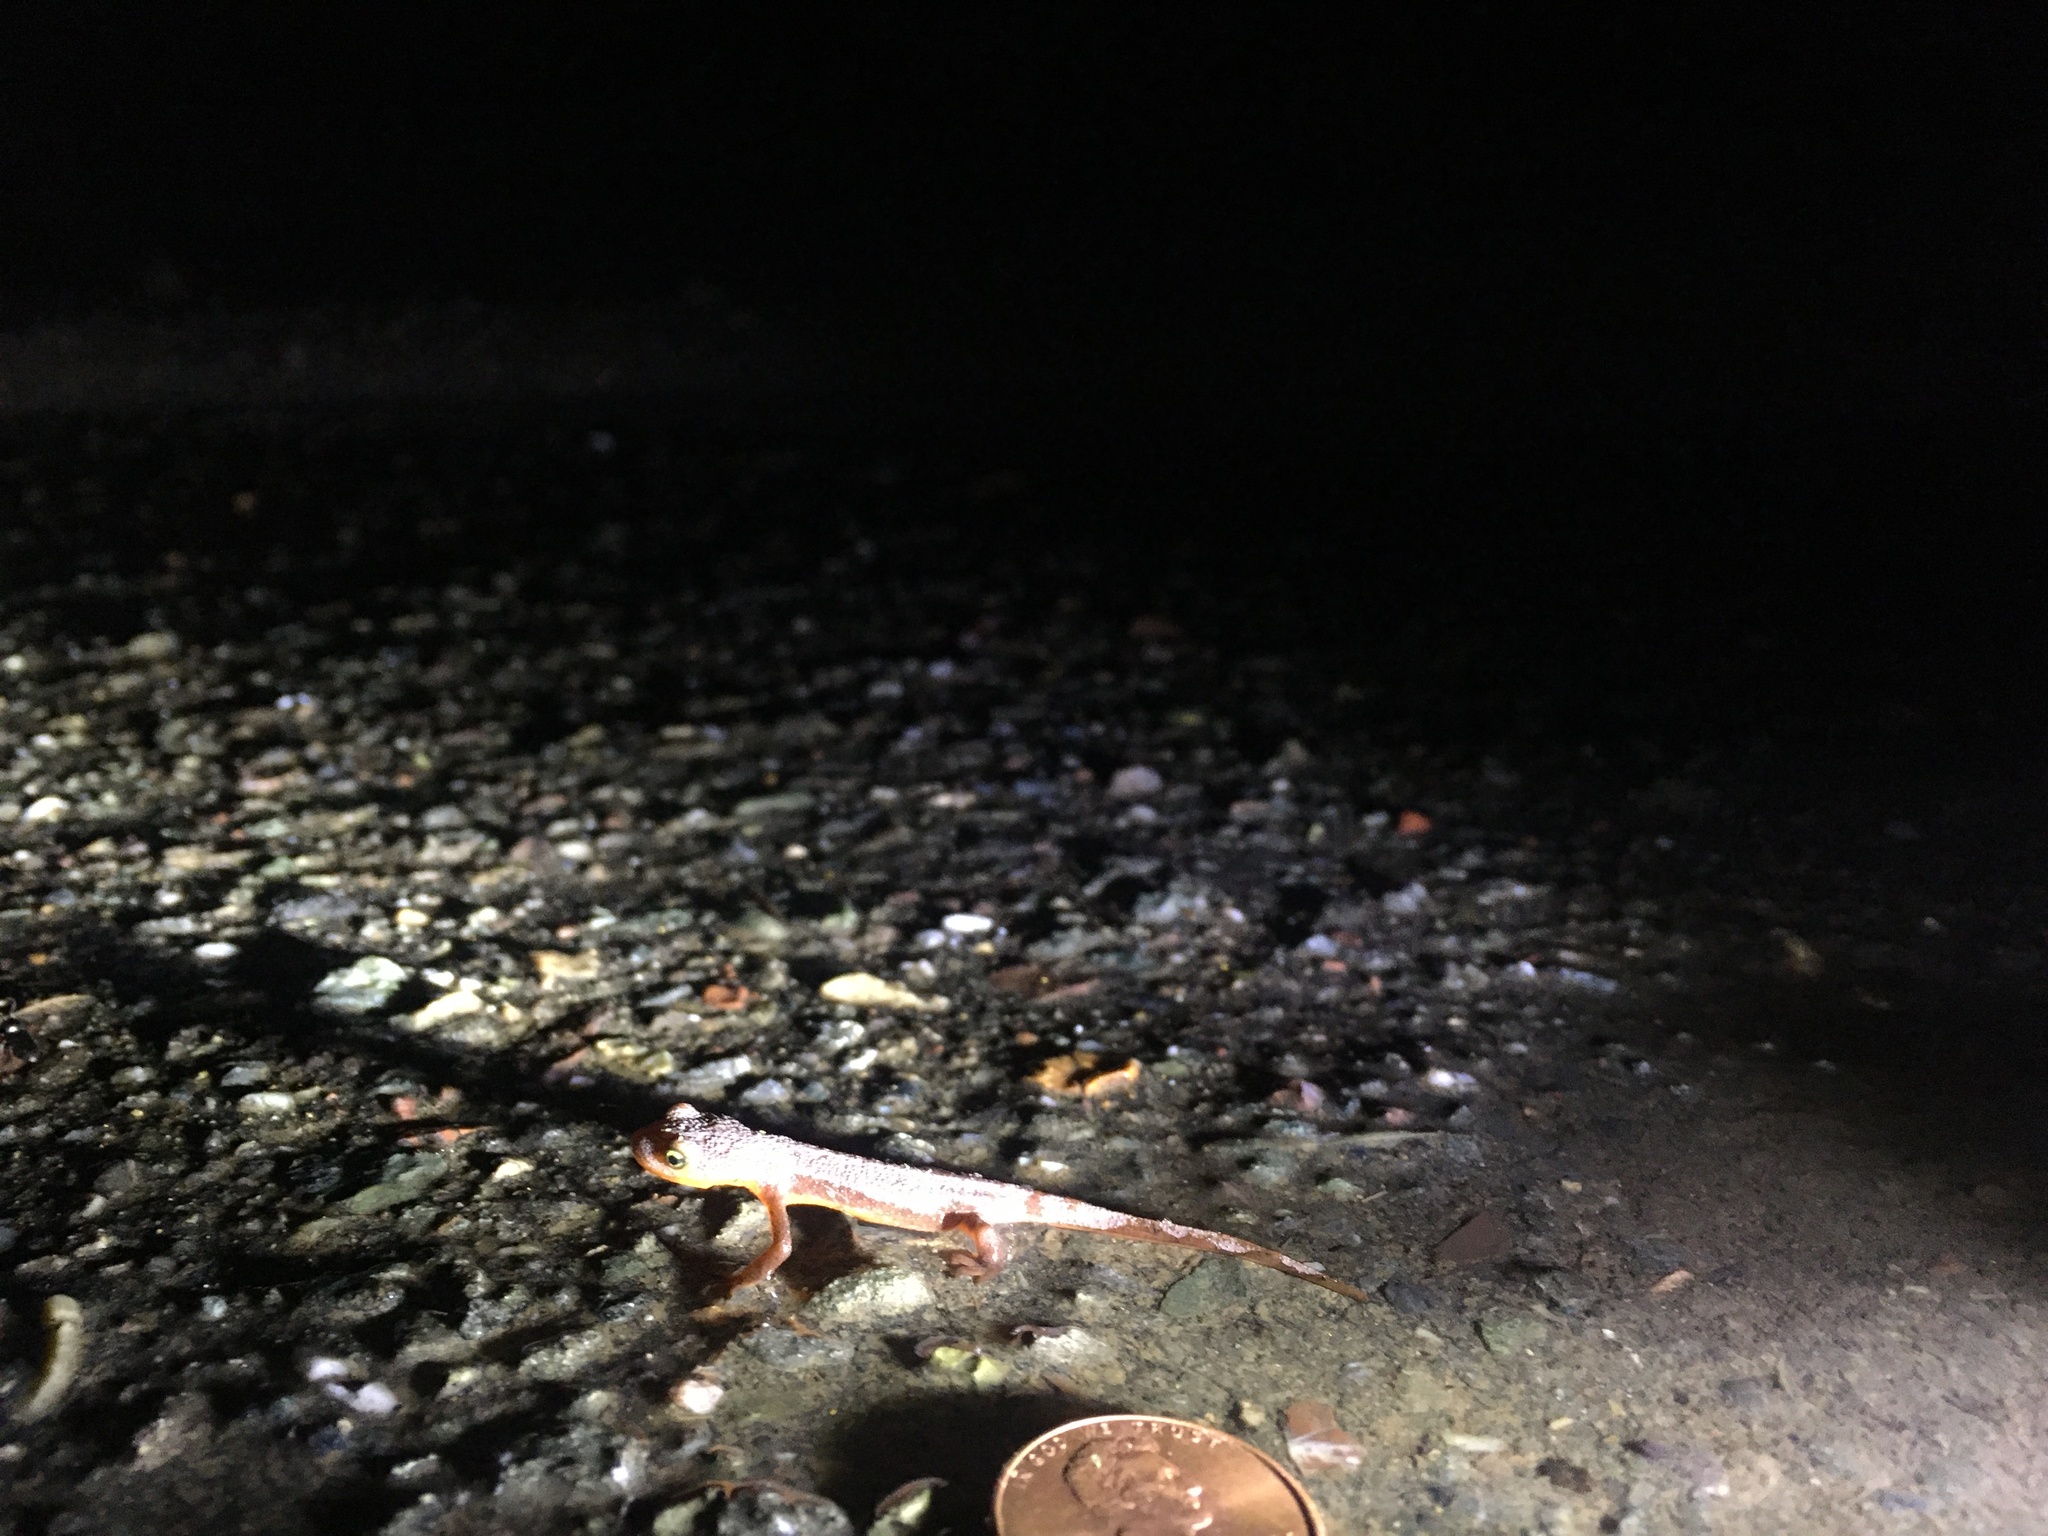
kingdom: Animalia
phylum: Chordata
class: Amphibia
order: Caudata
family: Salamandridae
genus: Taricha
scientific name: Taricha torosa
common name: California newt
